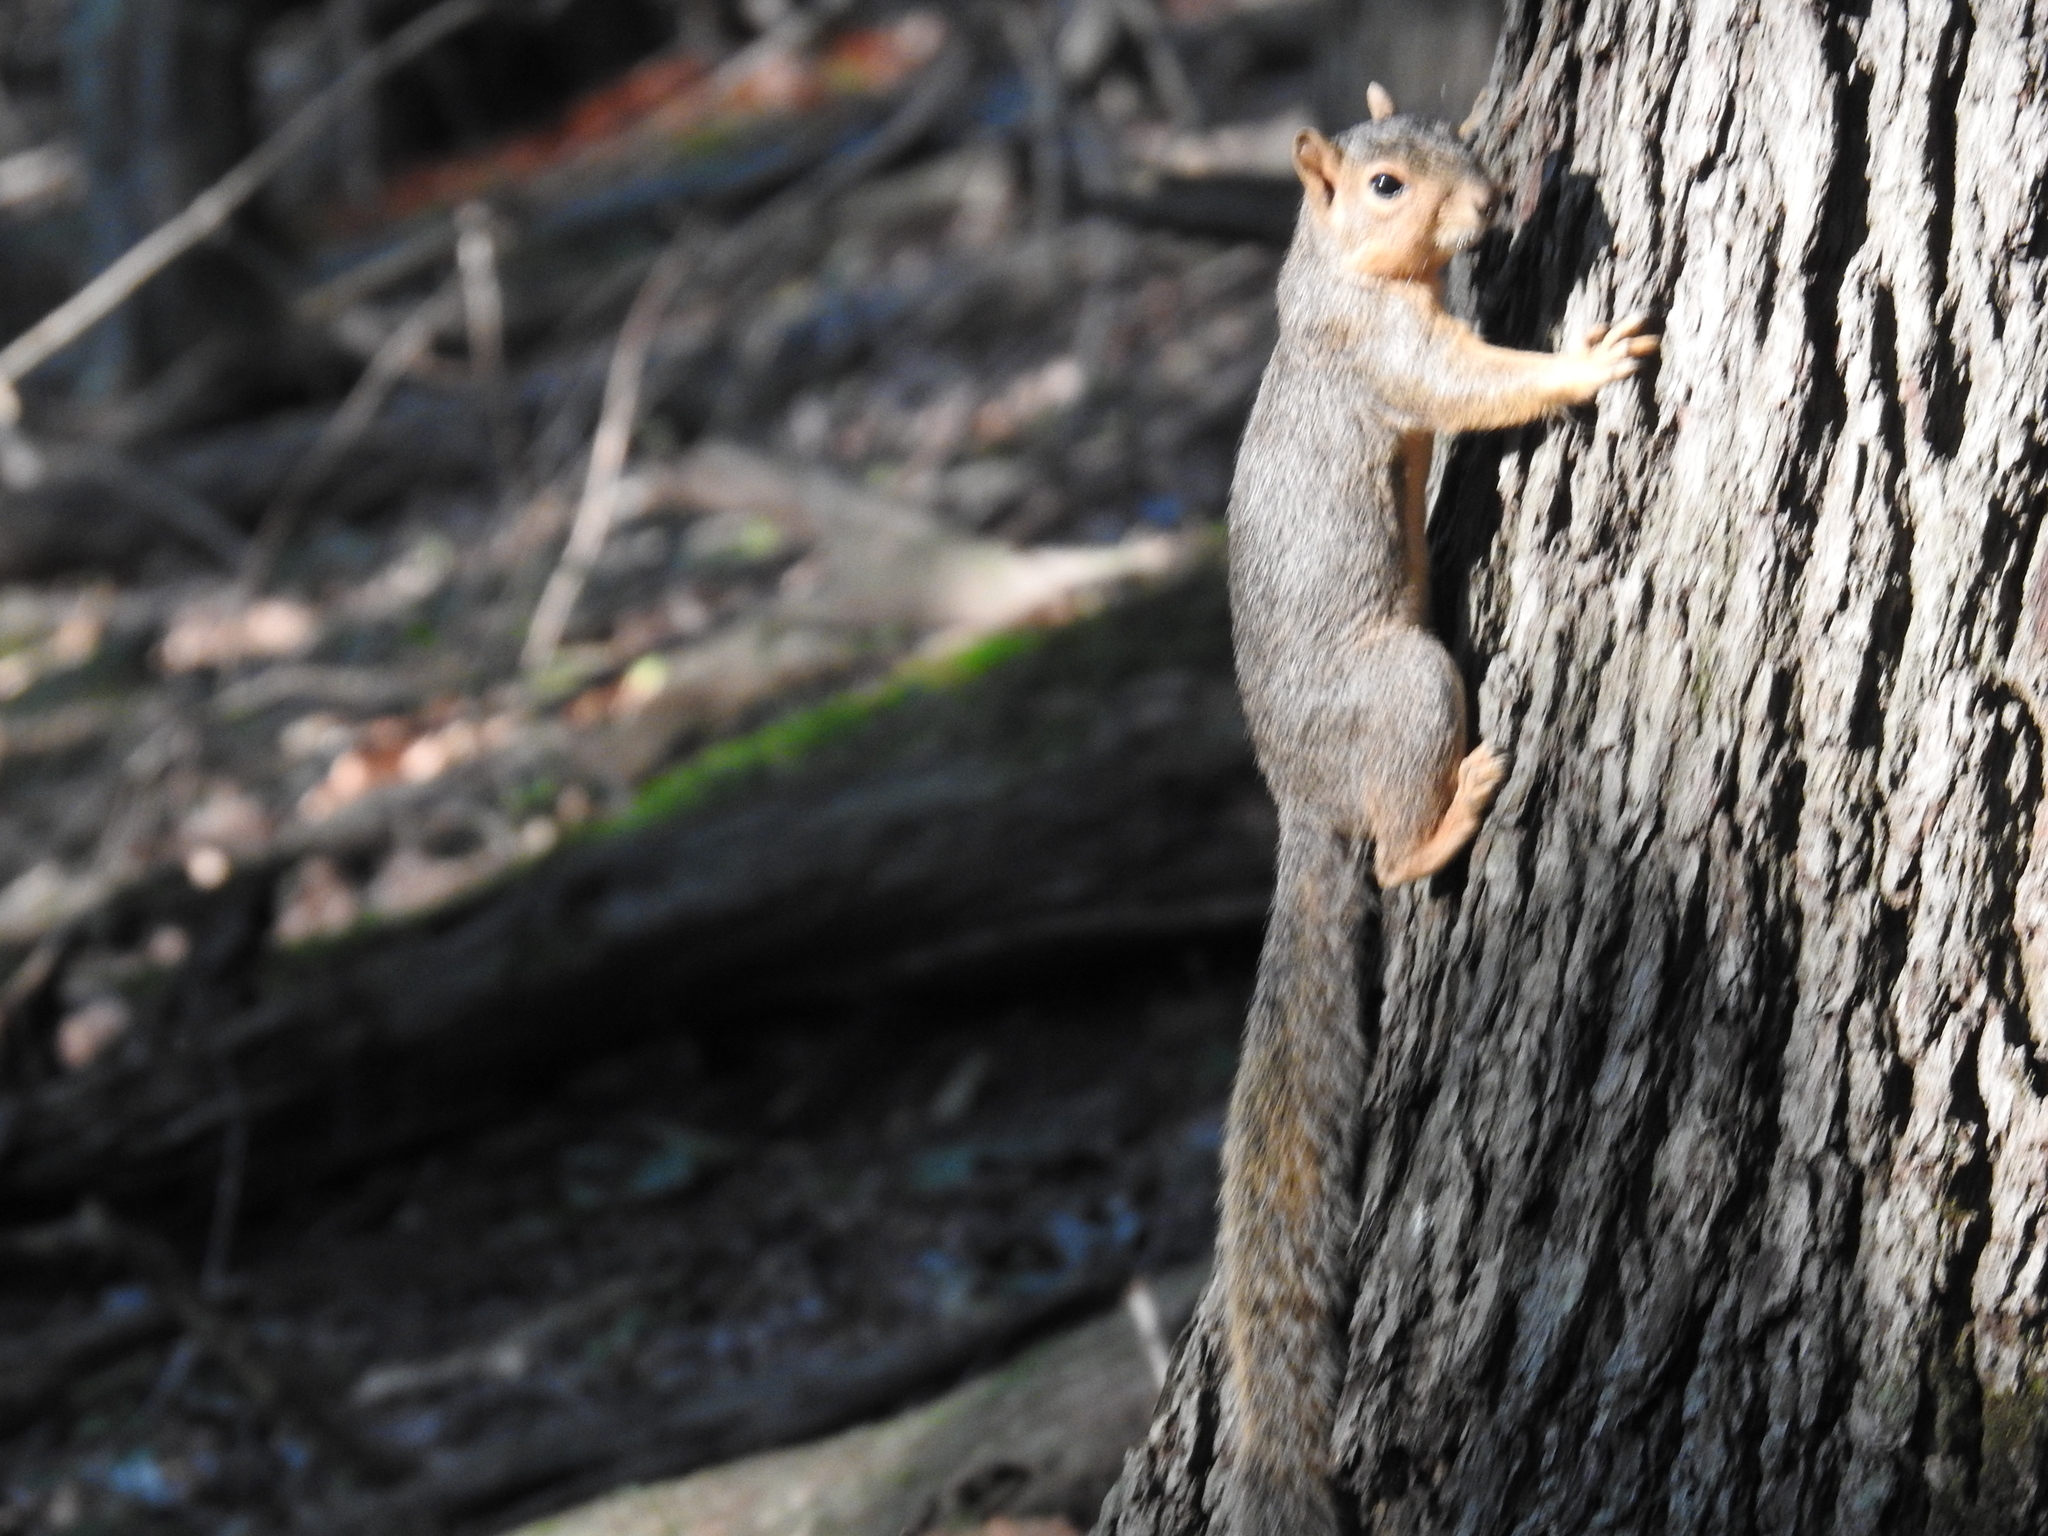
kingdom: Animalia
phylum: Chordata
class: Mammalia
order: Rodentia
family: Sciuridae
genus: Sciurus
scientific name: Sciurus niger
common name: Fox squirrel
